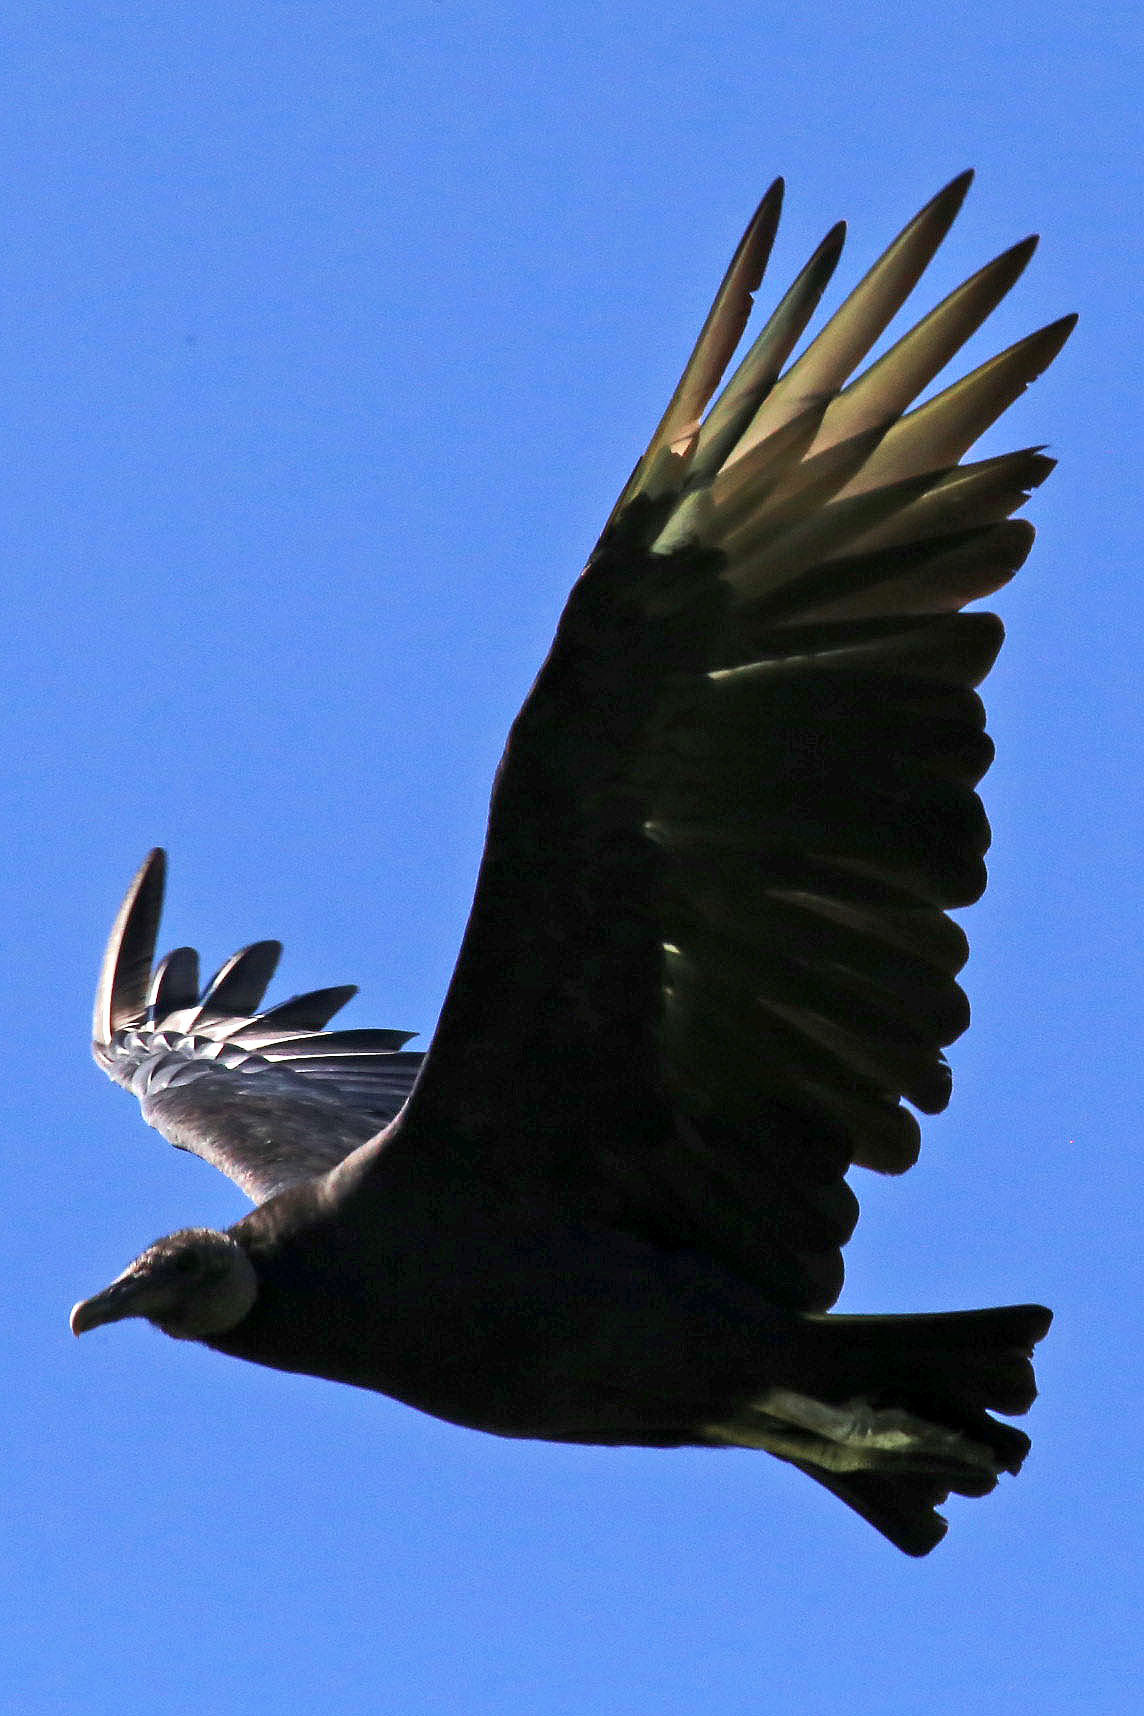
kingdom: Animalia
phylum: Chordata
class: Aves
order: Accipitriformes
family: Cathartidae
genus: Coragyps
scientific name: Coragyps atratus
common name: Black vulture
